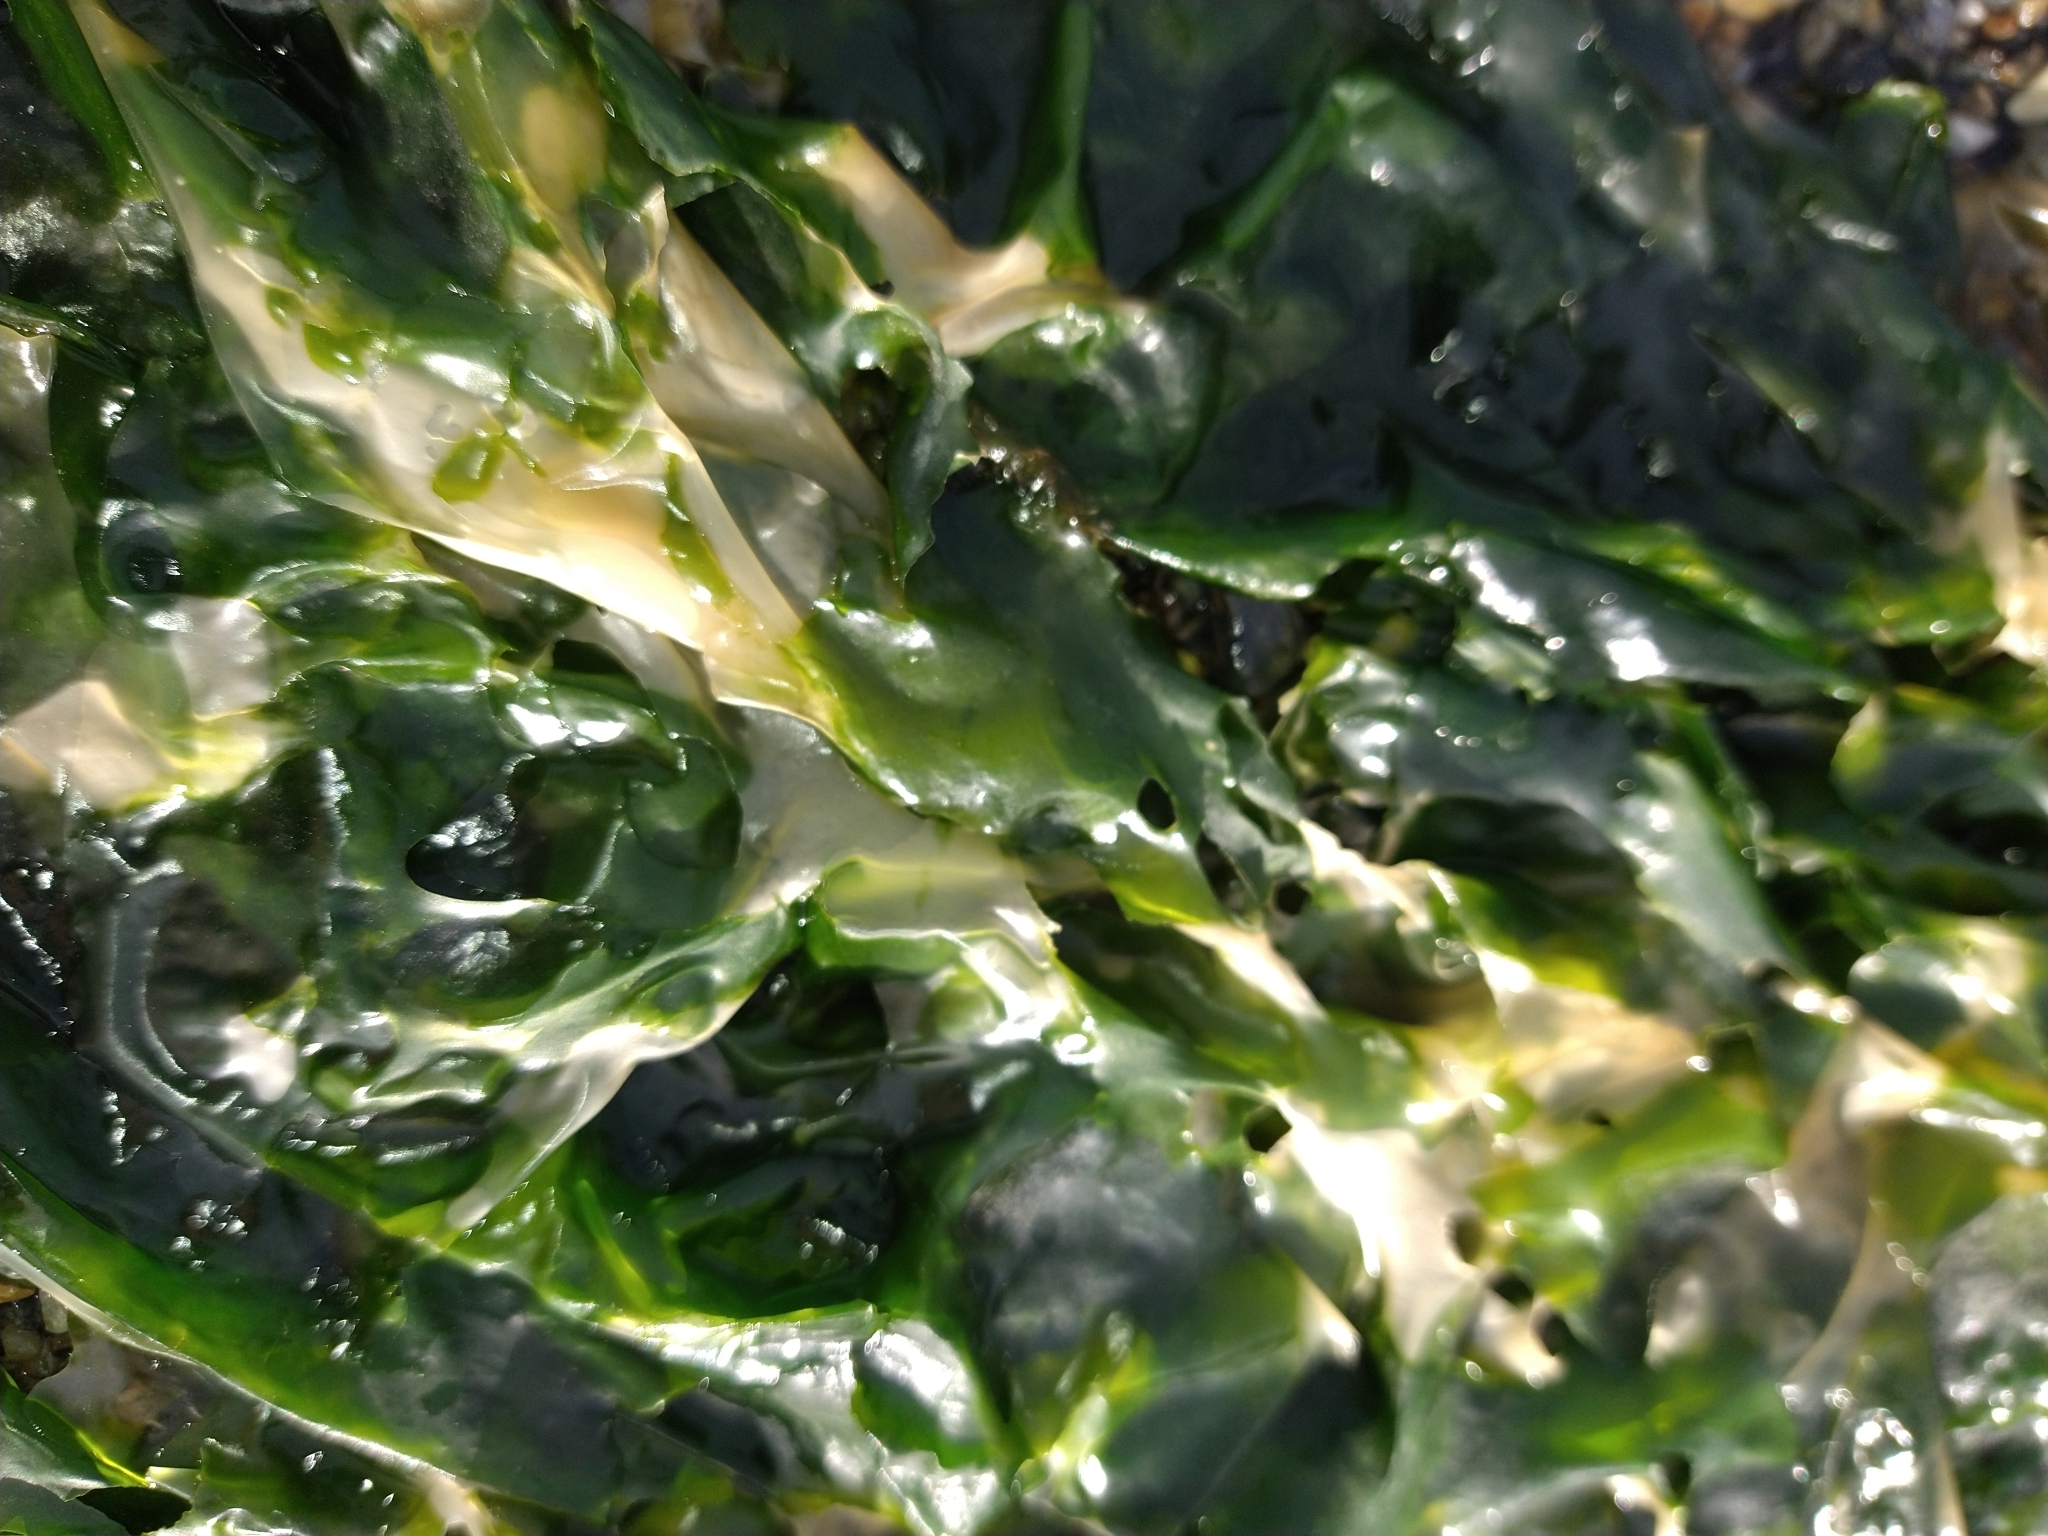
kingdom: Plantae
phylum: Chlorophyta
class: Ulvophyceae
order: Ulvales
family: Ulvaceae
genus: Ulva
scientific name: Ulva lactuca
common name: Sea lettuce
